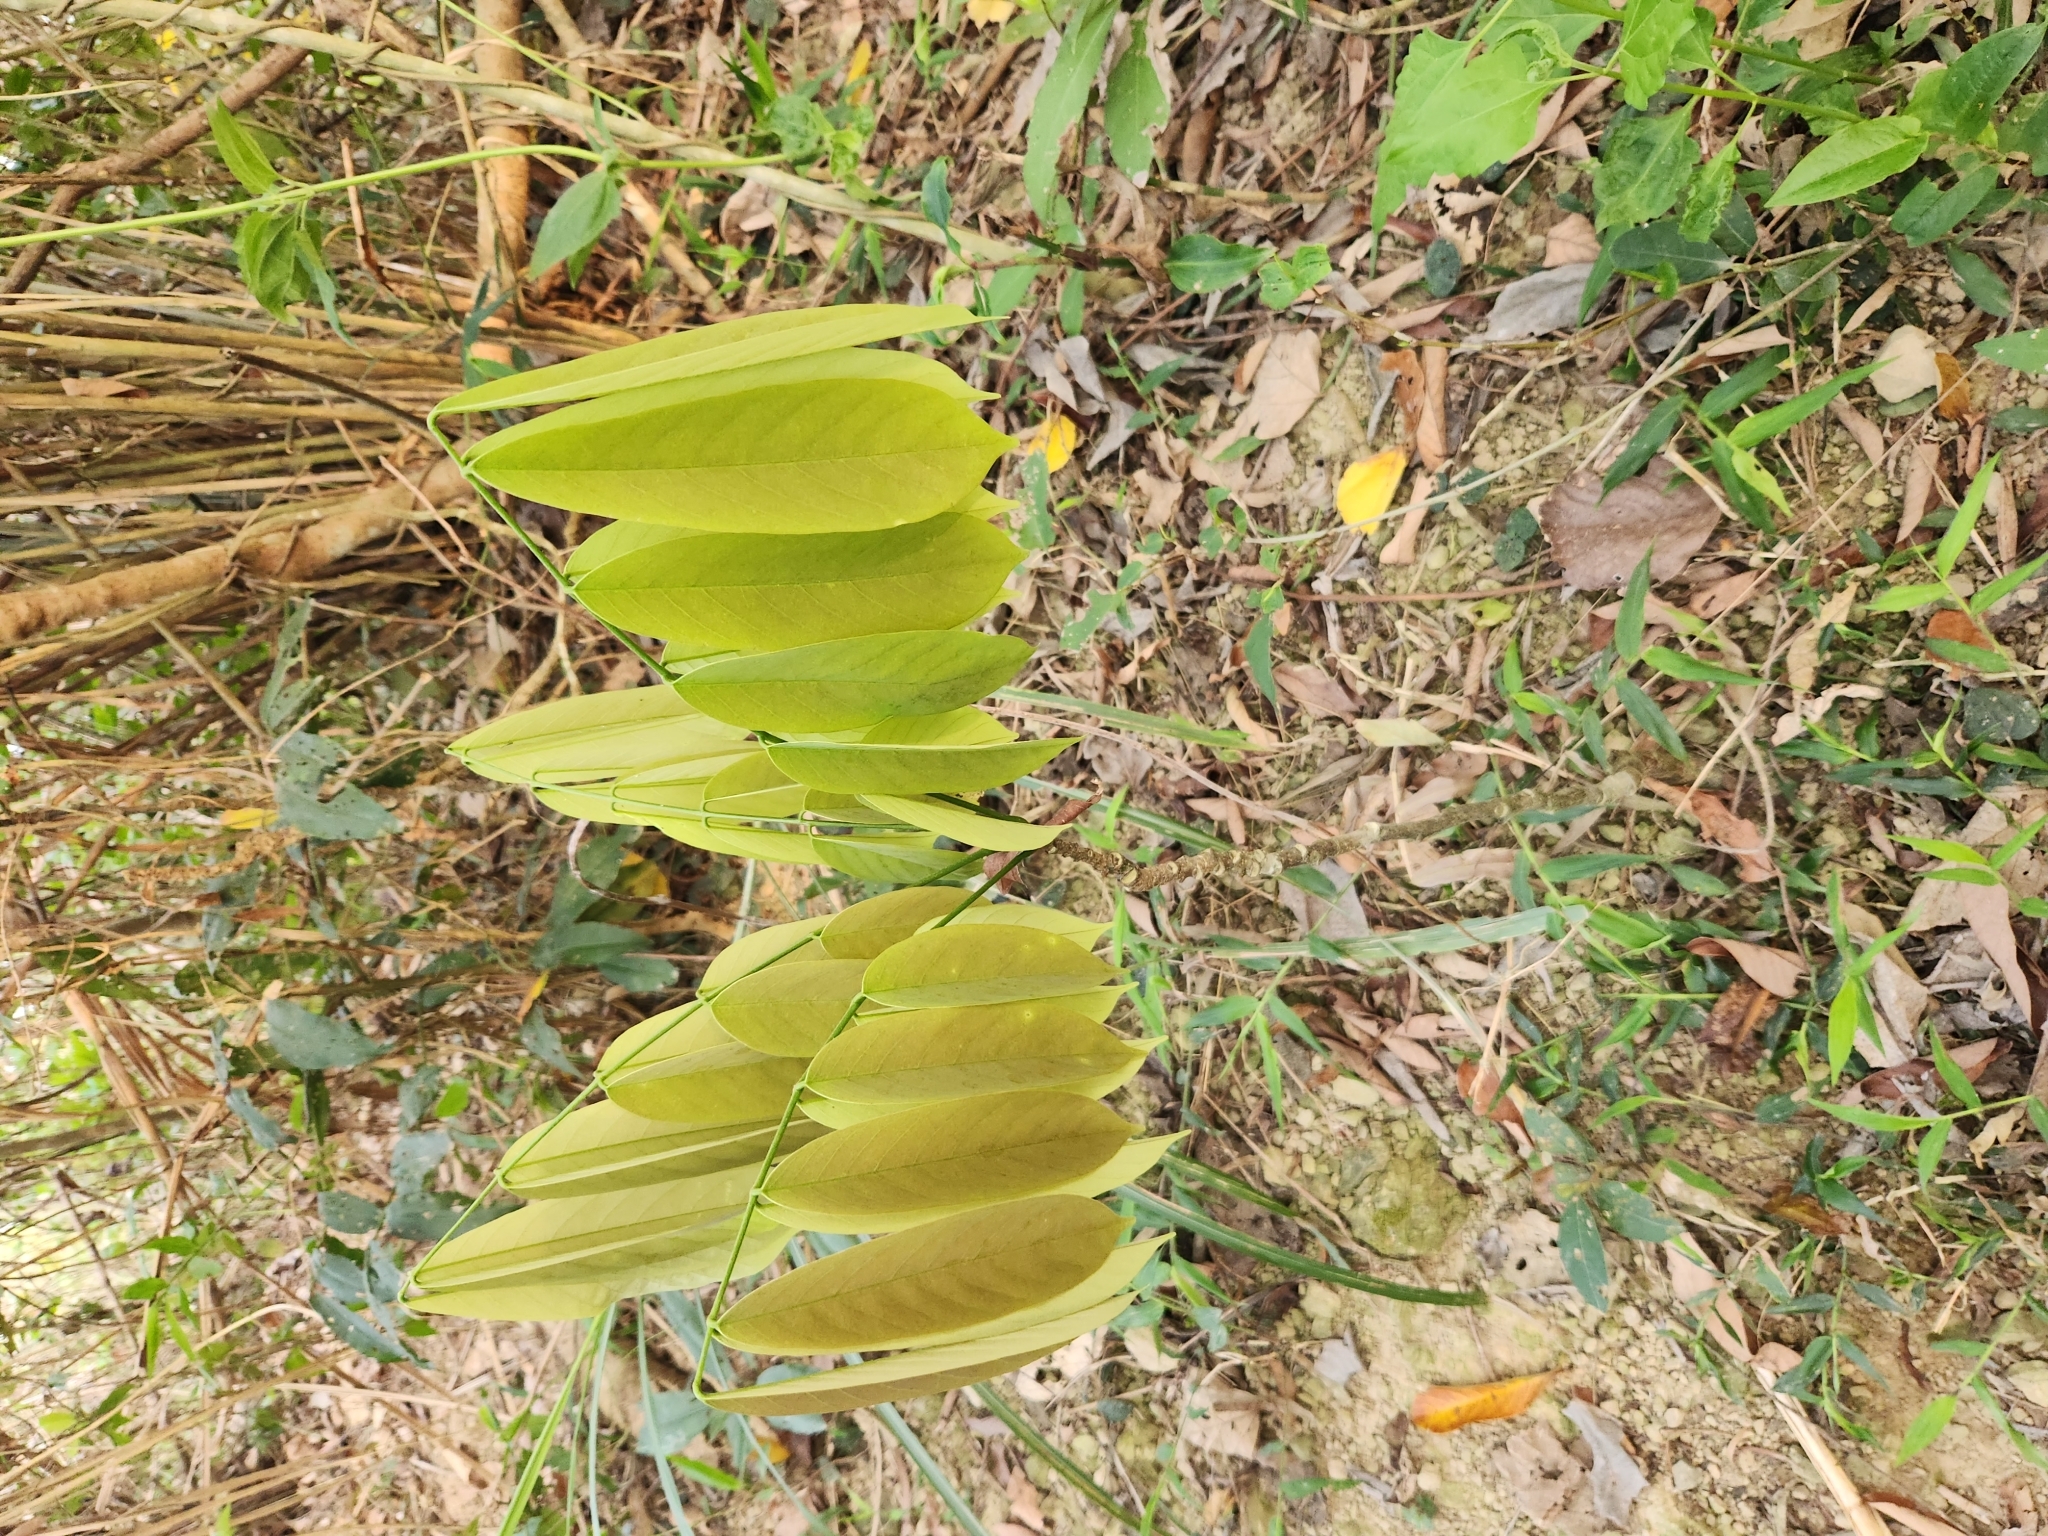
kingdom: Plantae
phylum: Tracheophyta
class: Magnoliopsida
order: Fabales
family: Fabaceae
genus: Millettia
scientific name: Millettia pachycarpa
